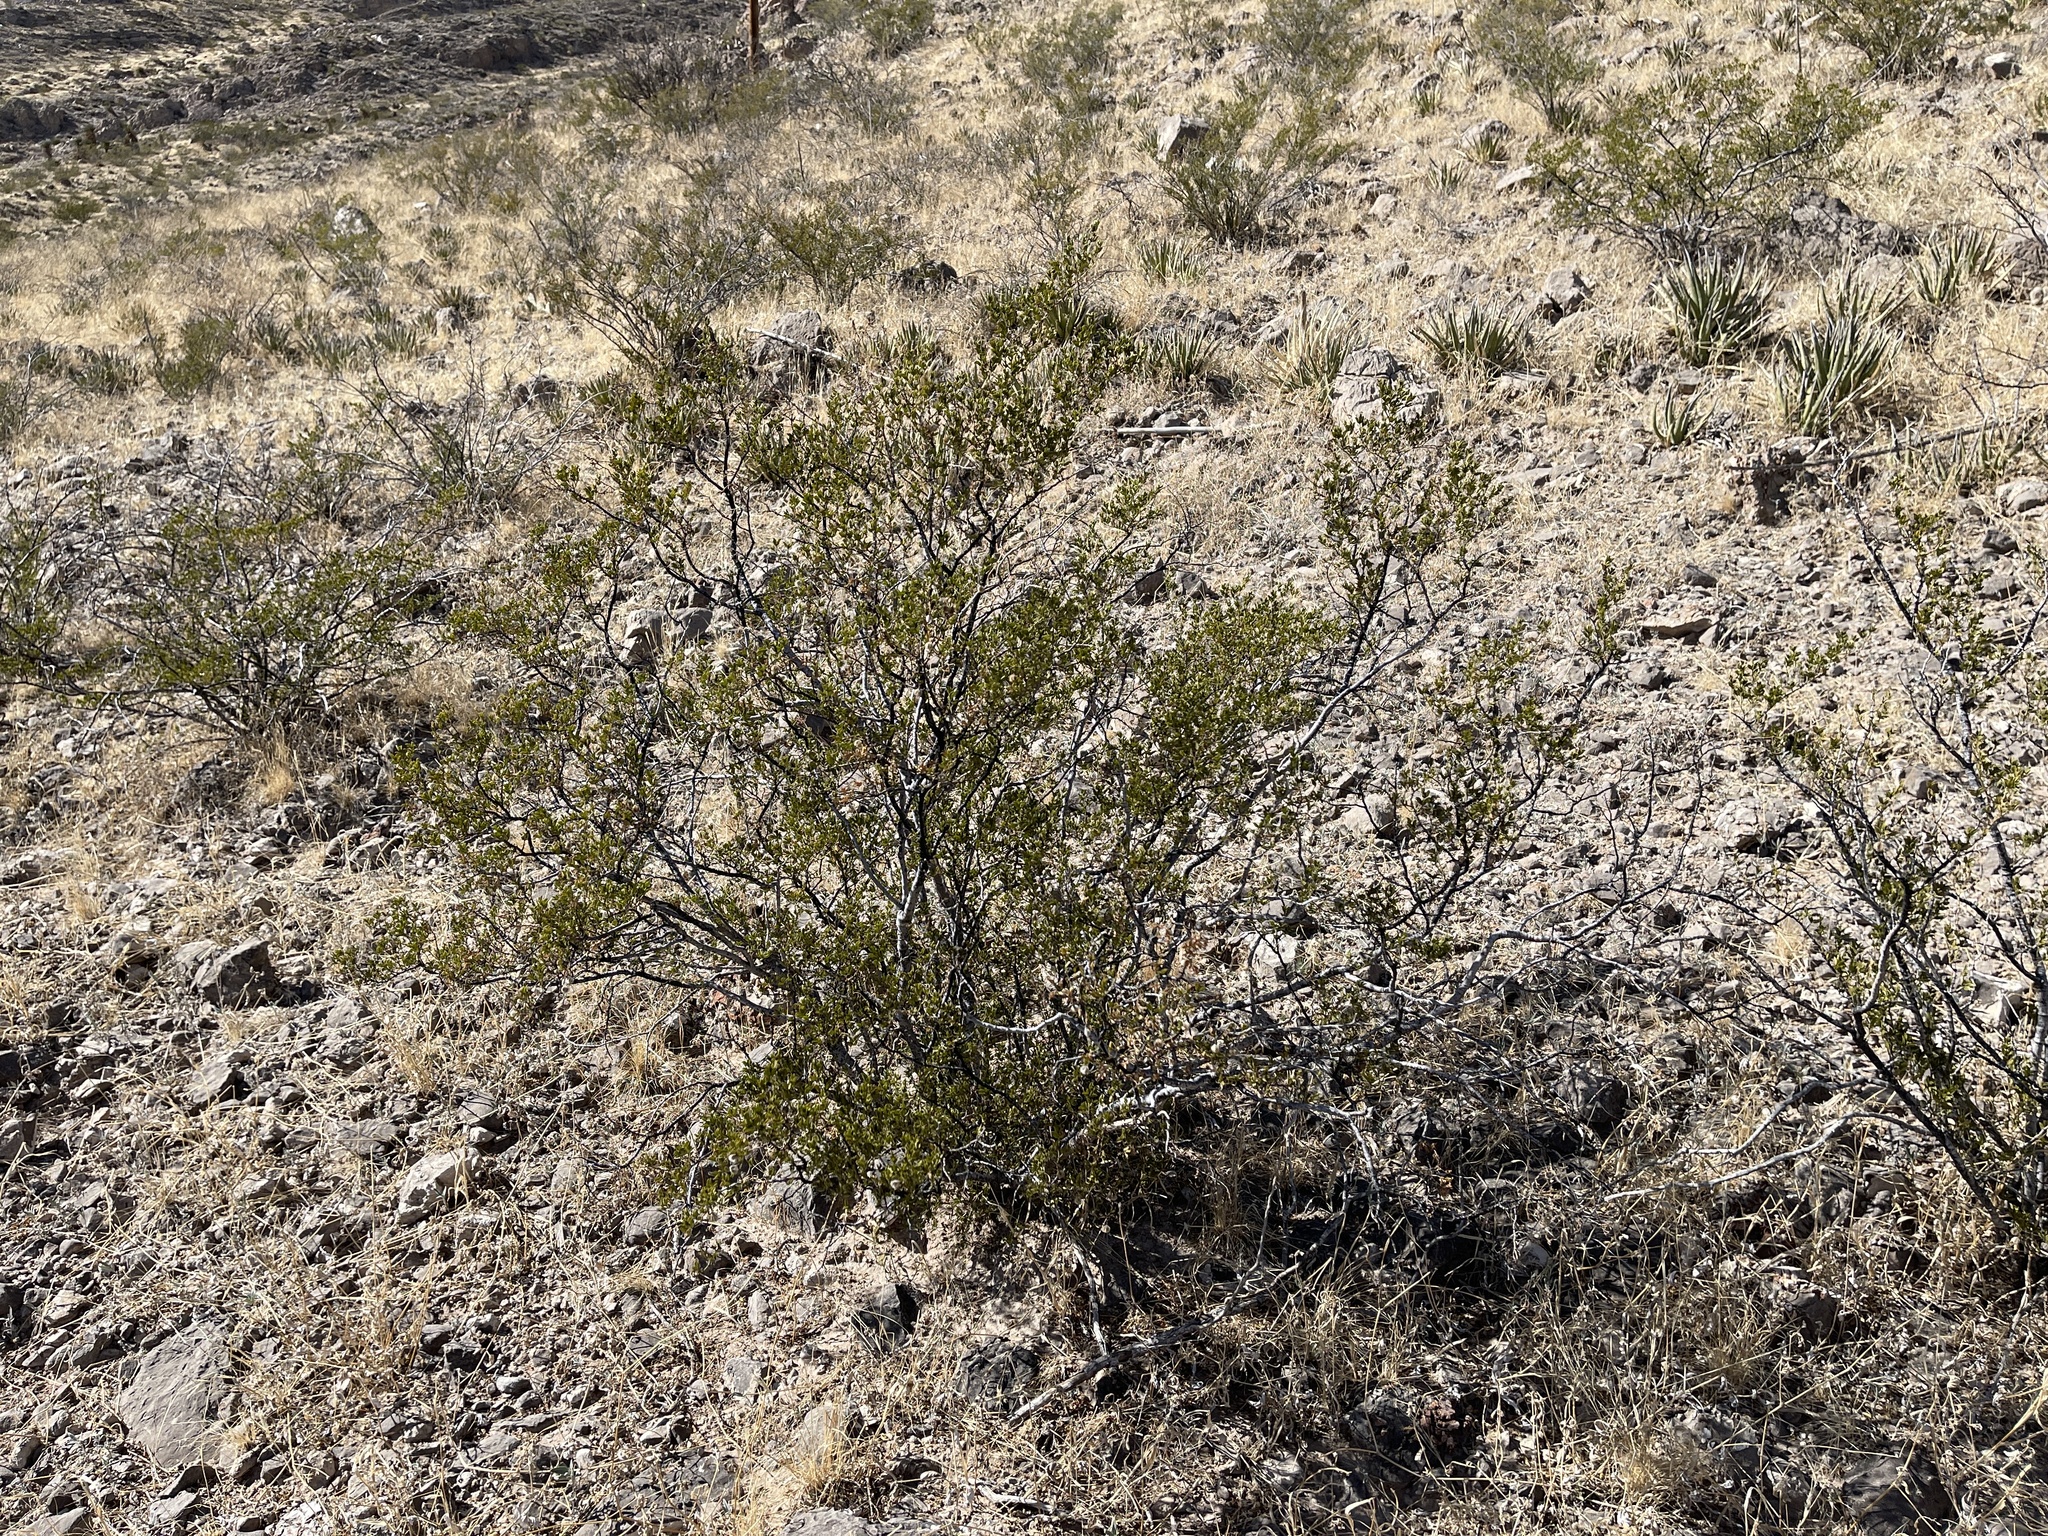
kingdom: Plantae
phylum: Tracheophyta
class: Magnoliopsida
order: Zygophyllales
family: Zygophyllaceae
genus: Larrea
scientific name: Larrea tridentata
